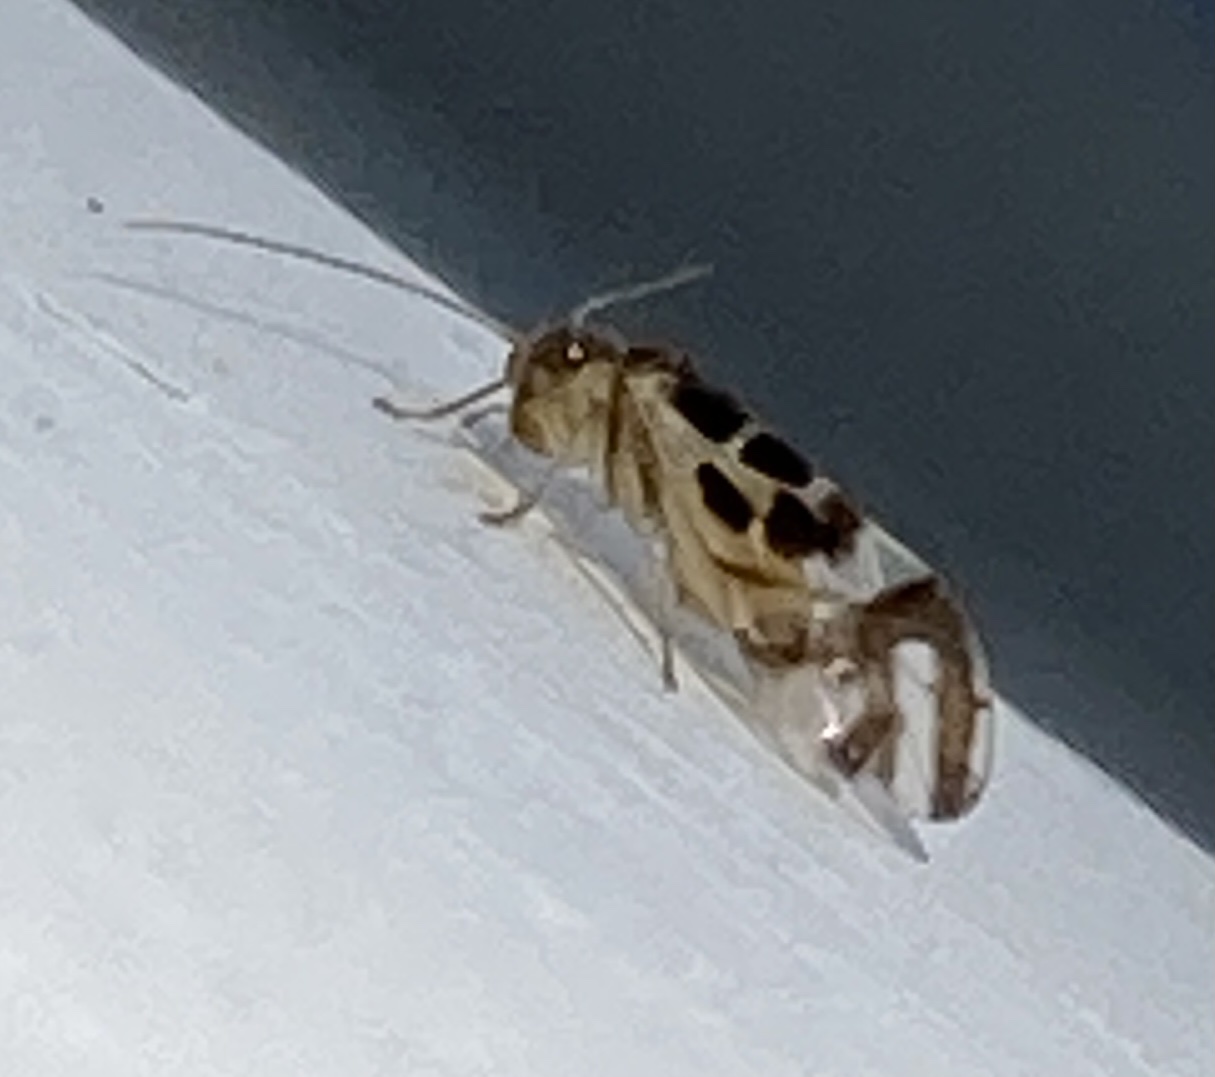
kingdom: Animalia
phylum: Arthropoda
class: Insecta
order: Psocodea
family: Stenopsocidae
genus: Graphopsocus
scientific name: Graphopsocus cruciatus
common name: Lizard bark louse
